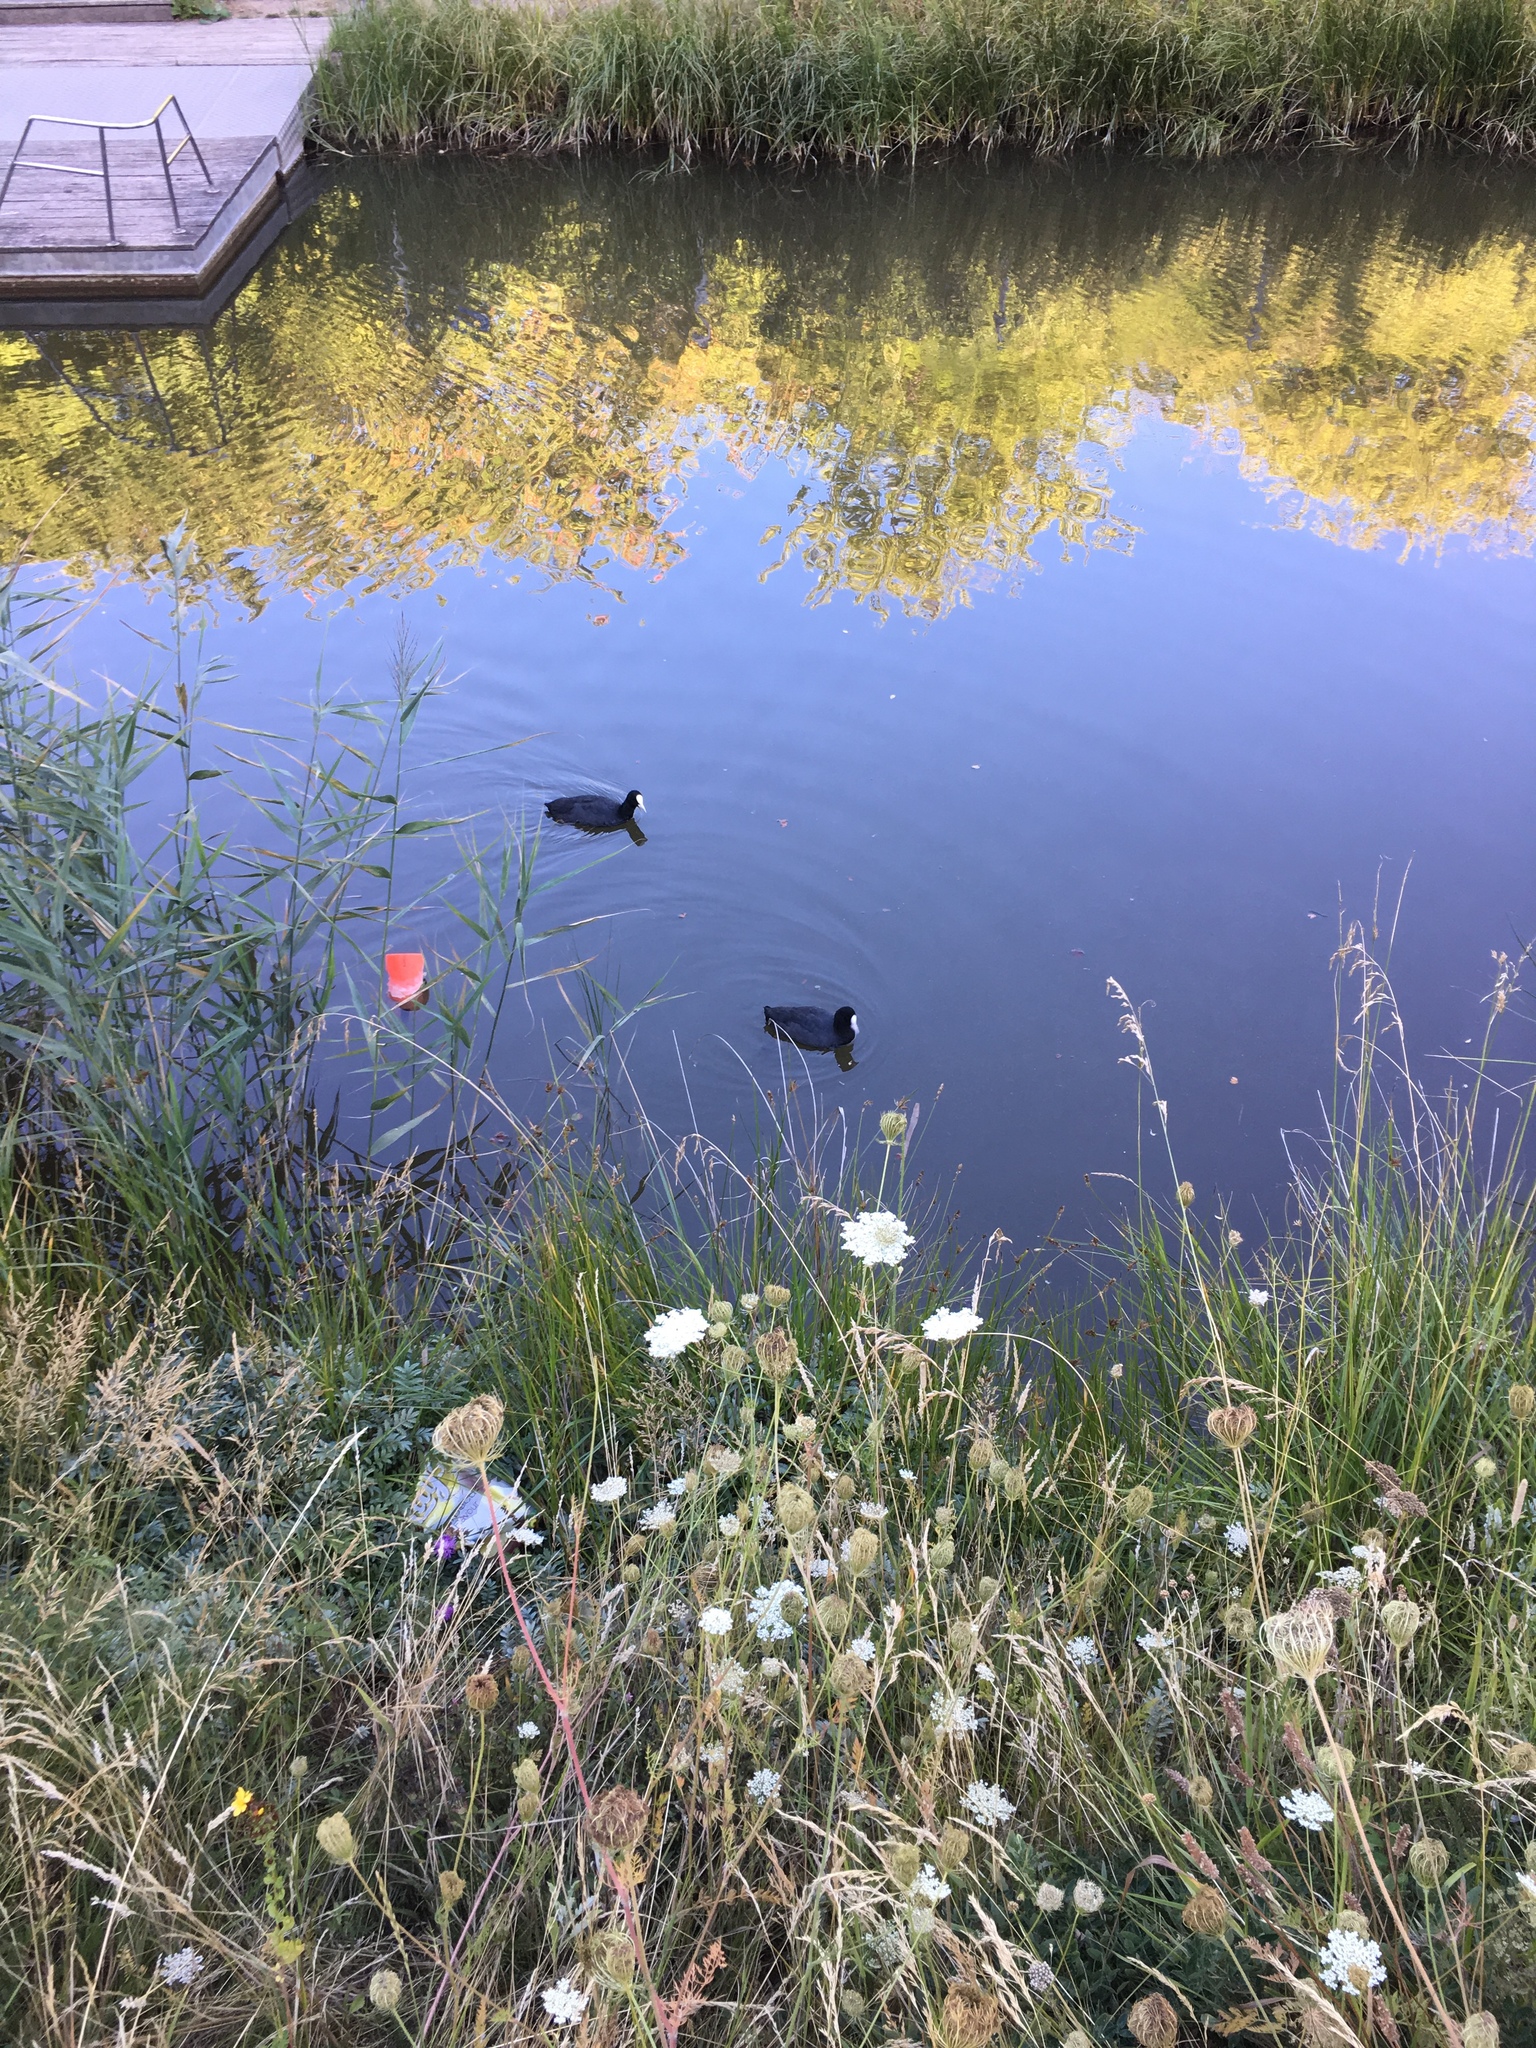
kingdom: Animalia
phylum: Chordata
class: Aves
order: Gruiformes
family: Rallidae
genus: Fulica
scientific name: Fulica atra
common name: Eurasian coot
